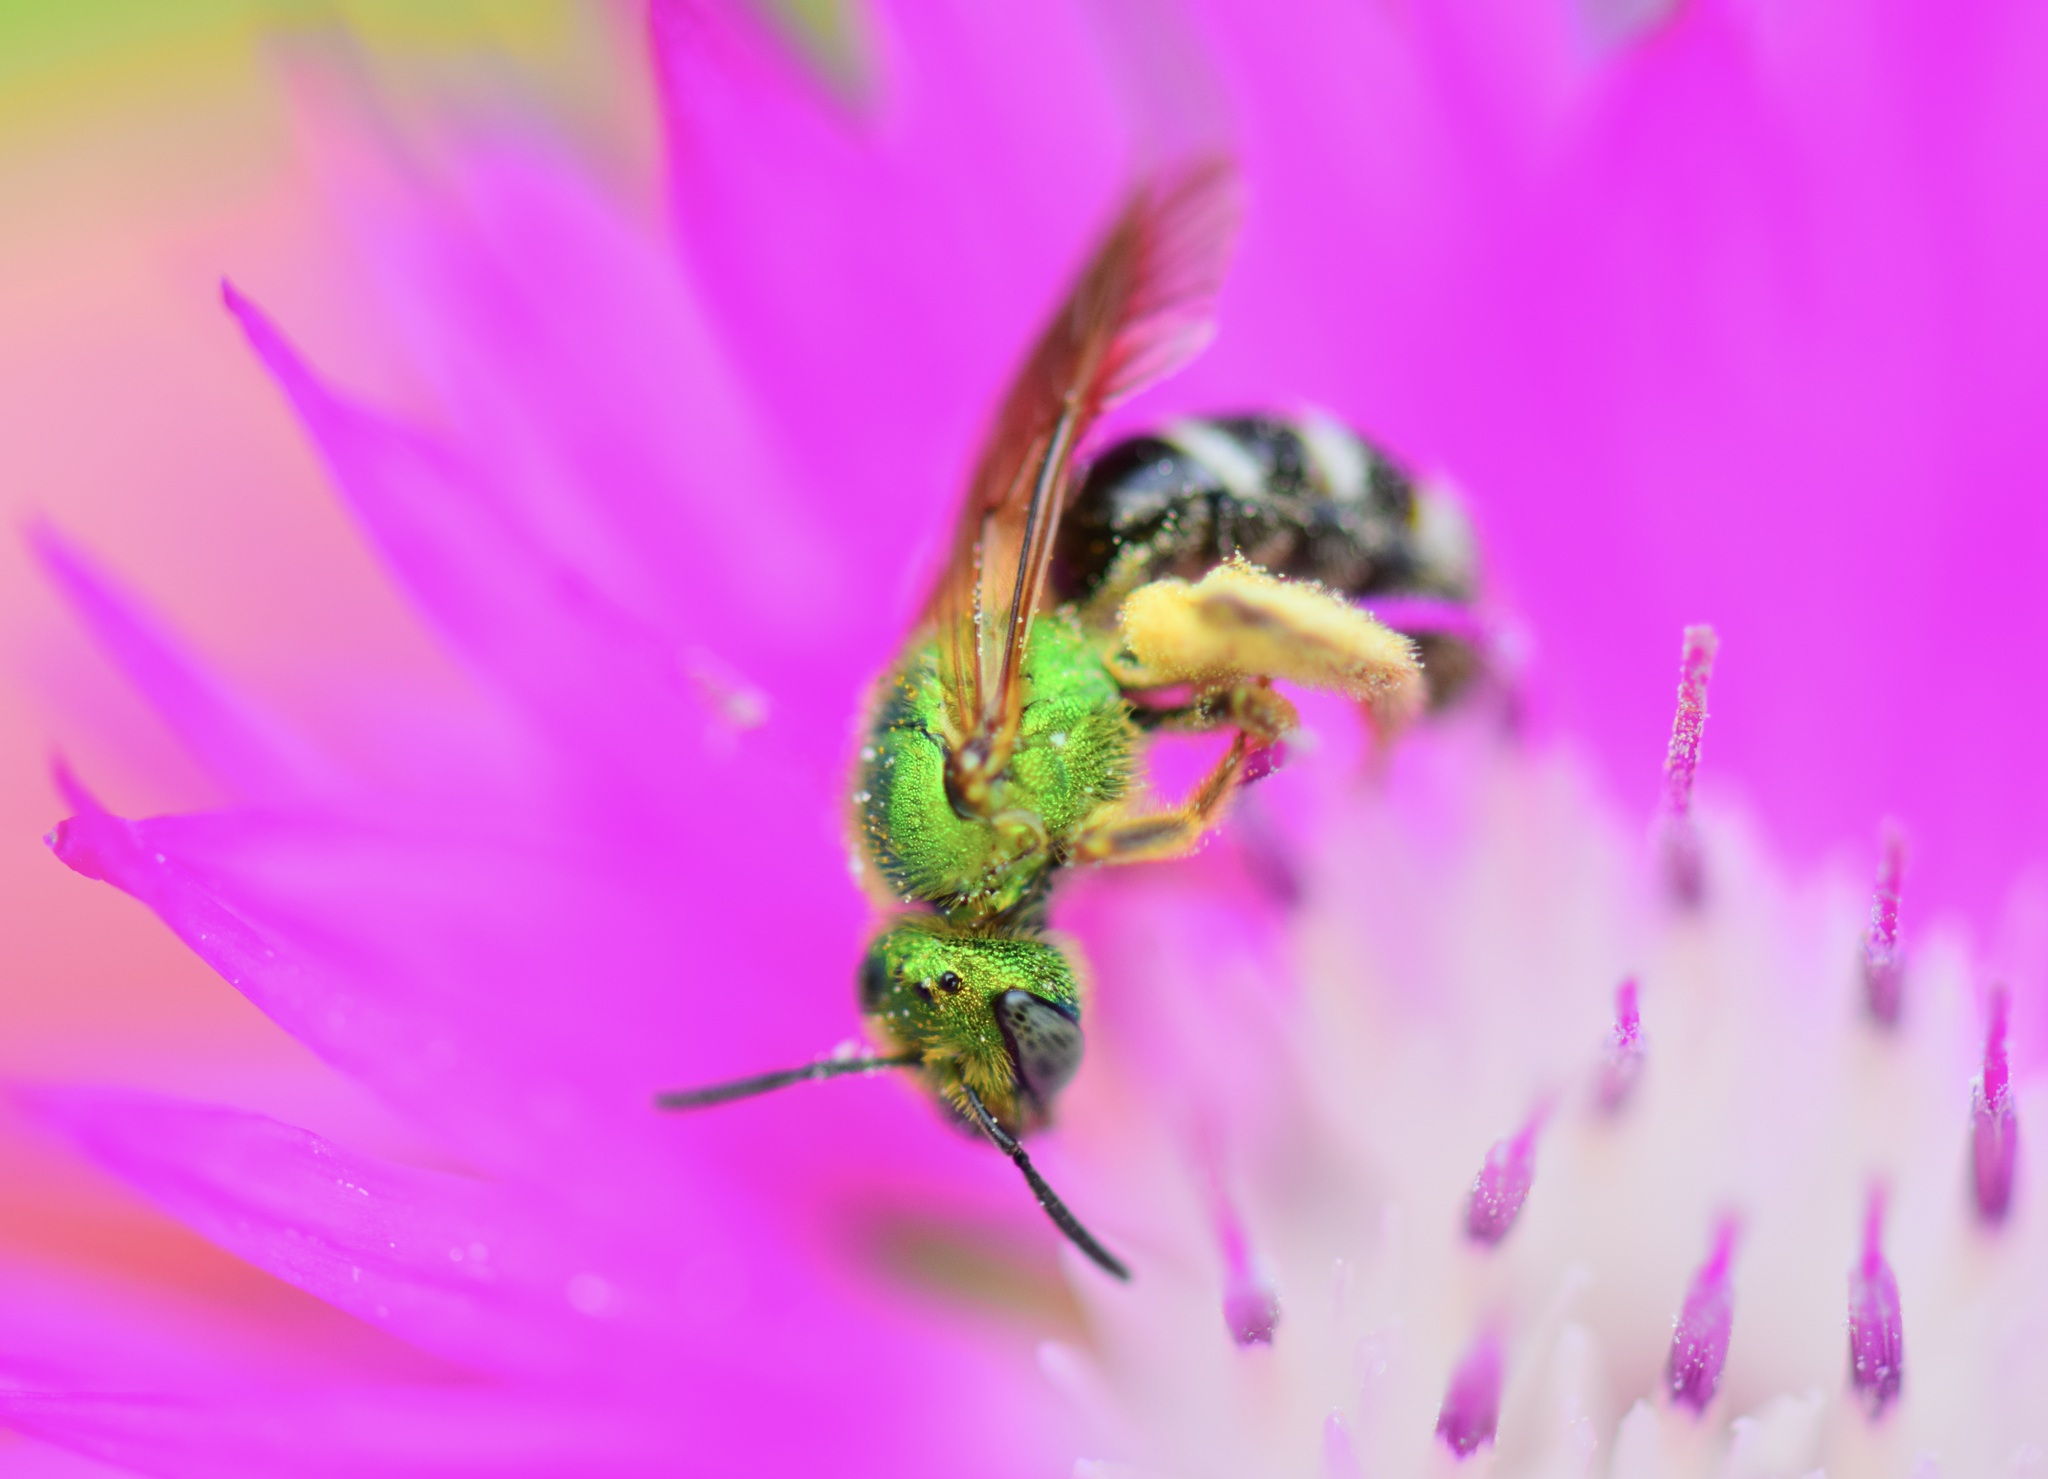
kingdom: Animalia
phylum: Arthropoda
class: Insecta
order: Hymenoptera
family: Halictidae
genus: Agapostemon
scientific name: Agapostemon virescens
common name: Bicolored striped sweat bee
